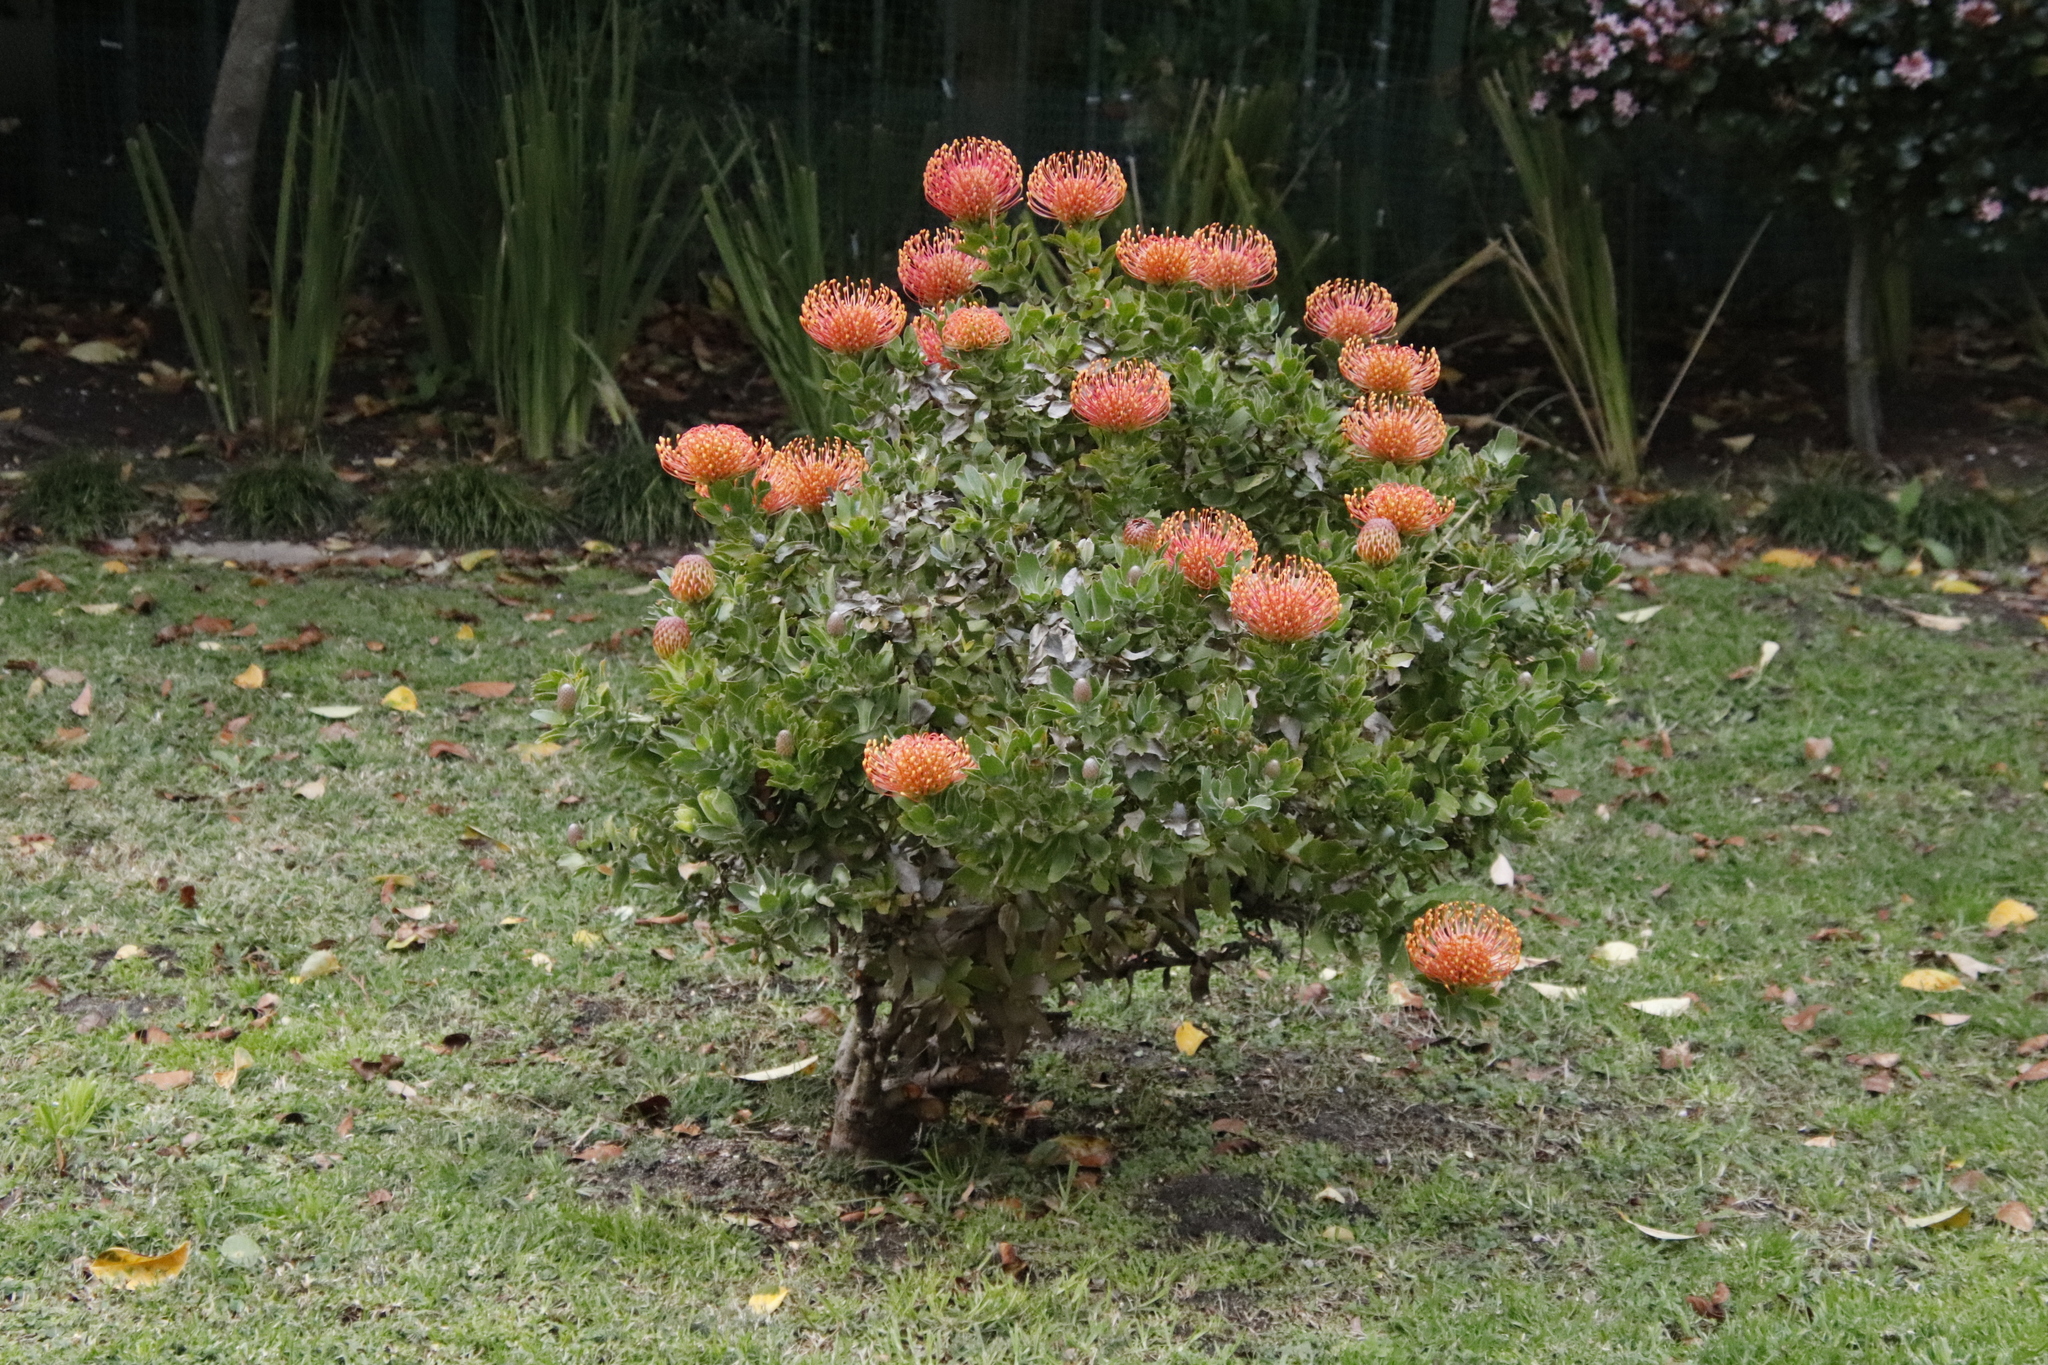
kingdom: Plantae
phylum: Tracheophyta
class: Magnoliopsida
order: Proteales
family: Proteaceae
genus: Leucospermum
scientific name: Leucospermum
